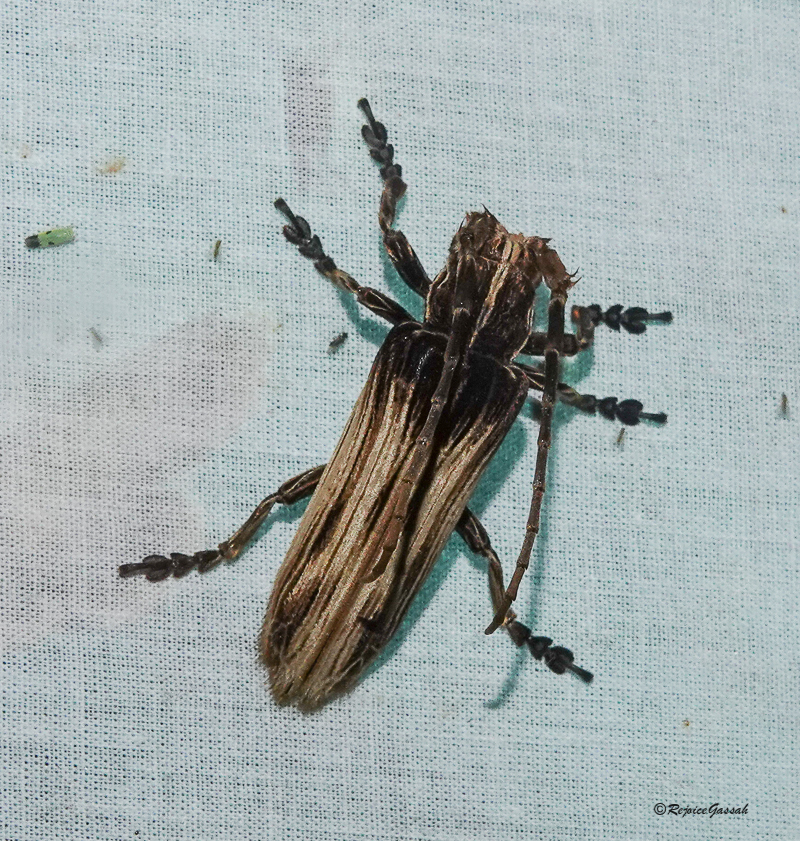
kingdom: Animalia
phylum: Arthropoda
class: Insecta
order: Coleoptera
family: Cerambycidae
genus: Xylorhiza
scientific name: Xylorhiza adusta
